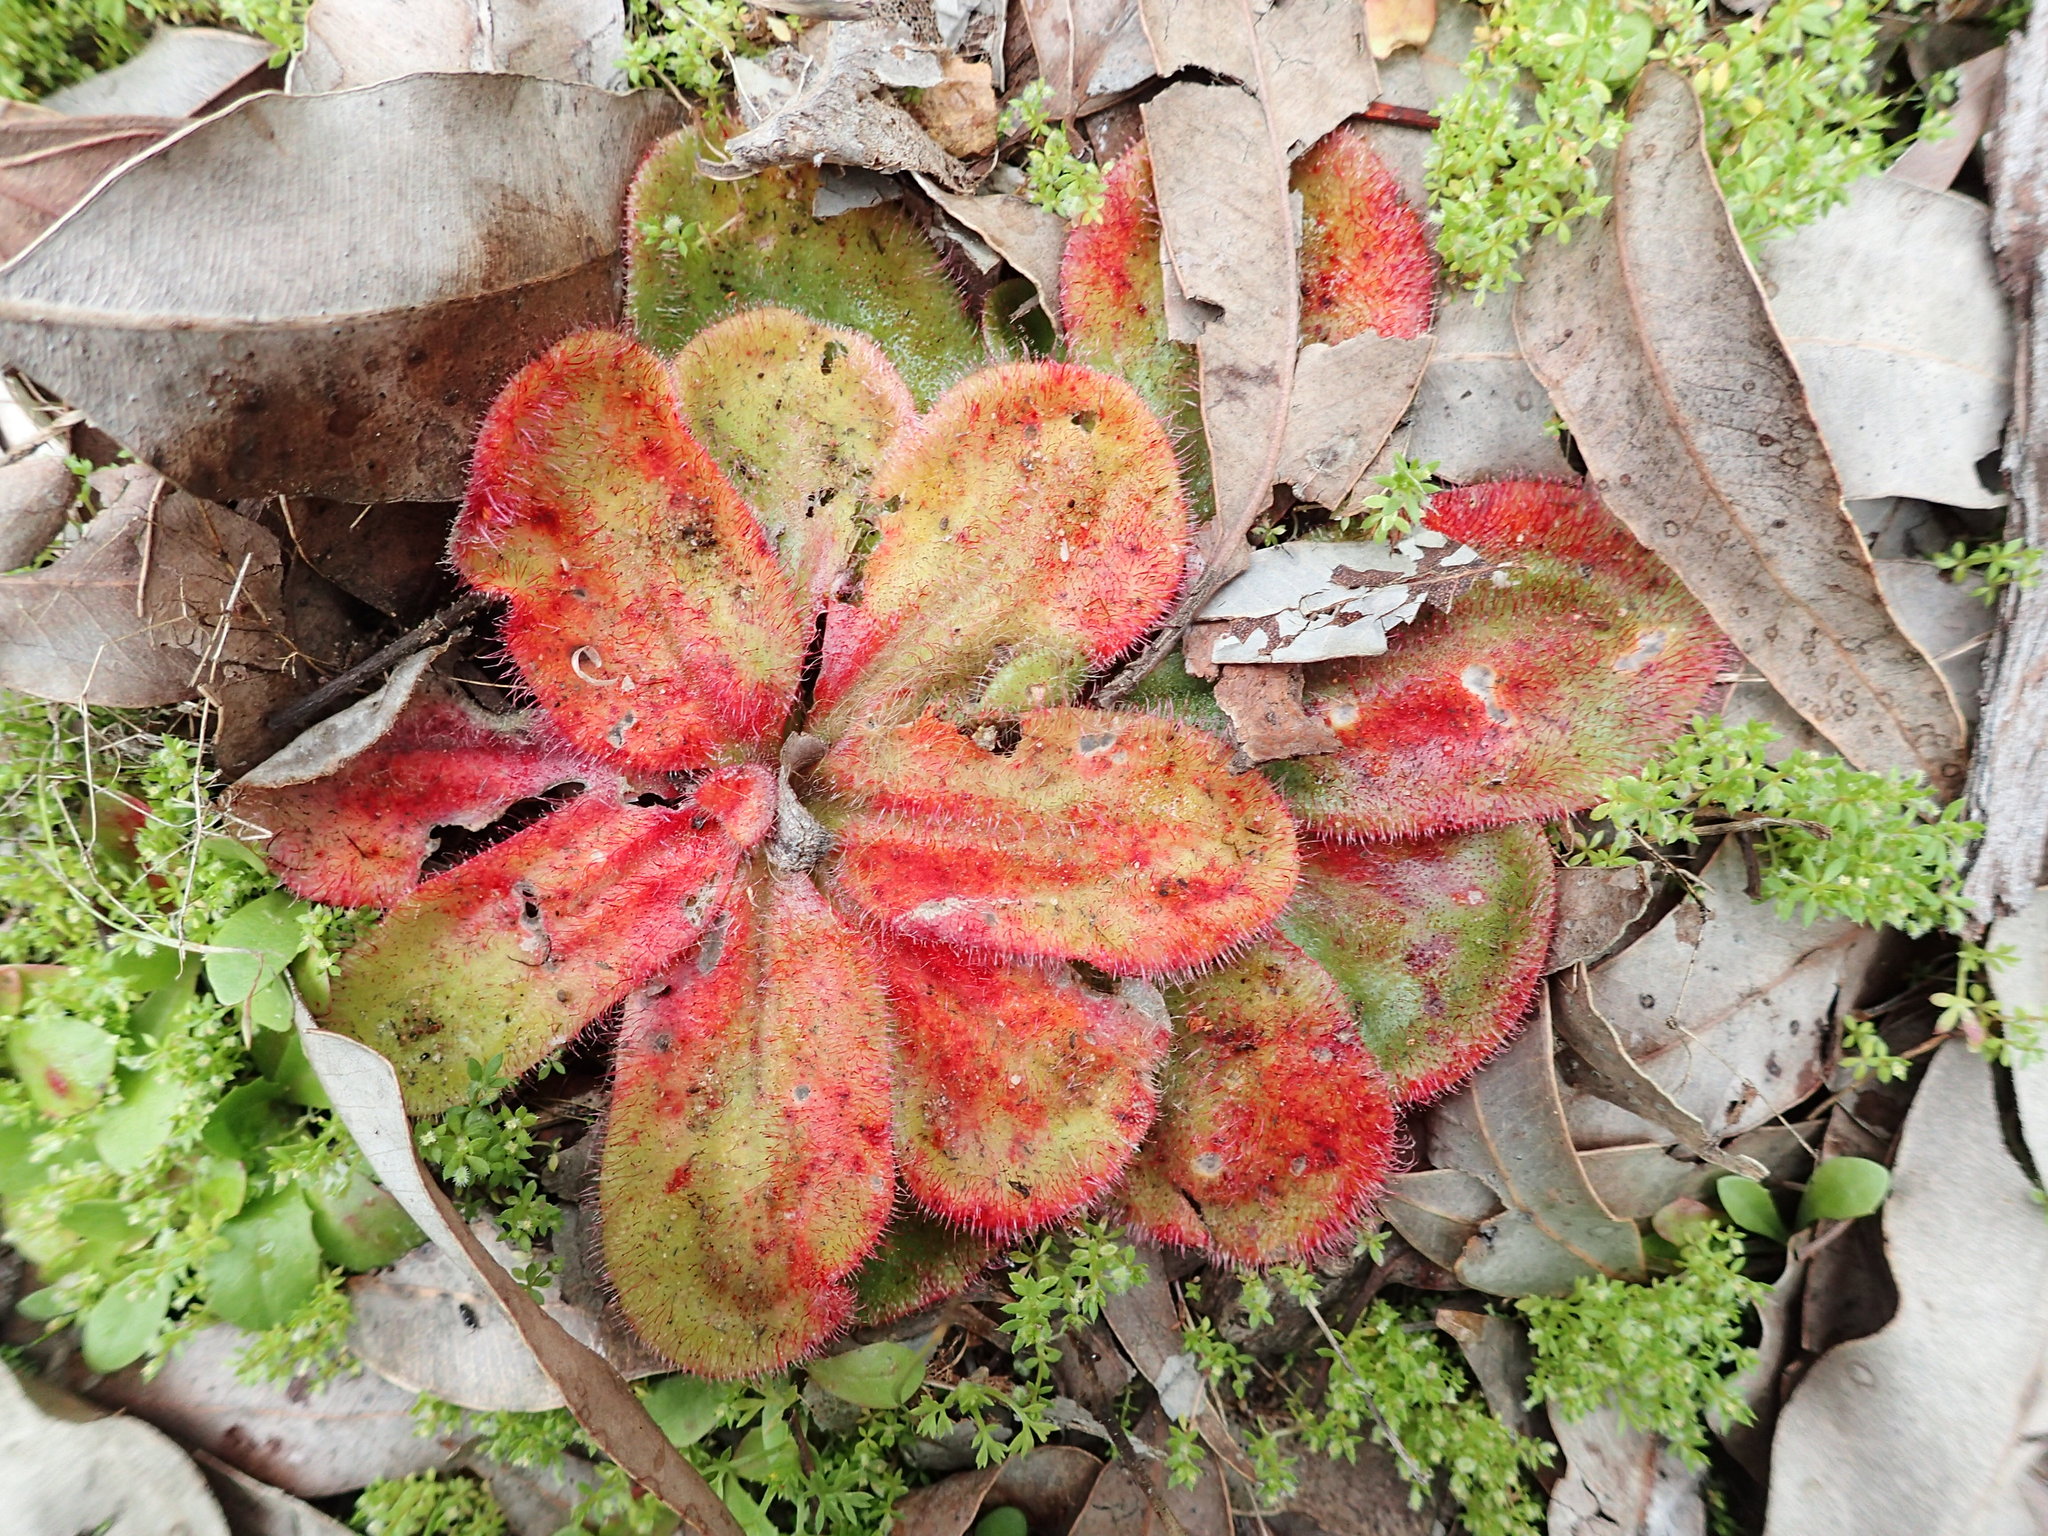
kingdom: Plantae
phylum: Tracheophyta
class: Magnoliopsida
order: Caryophyllales
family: Droseraceae
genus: Drosera
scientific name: Drosera erythrorhiza
